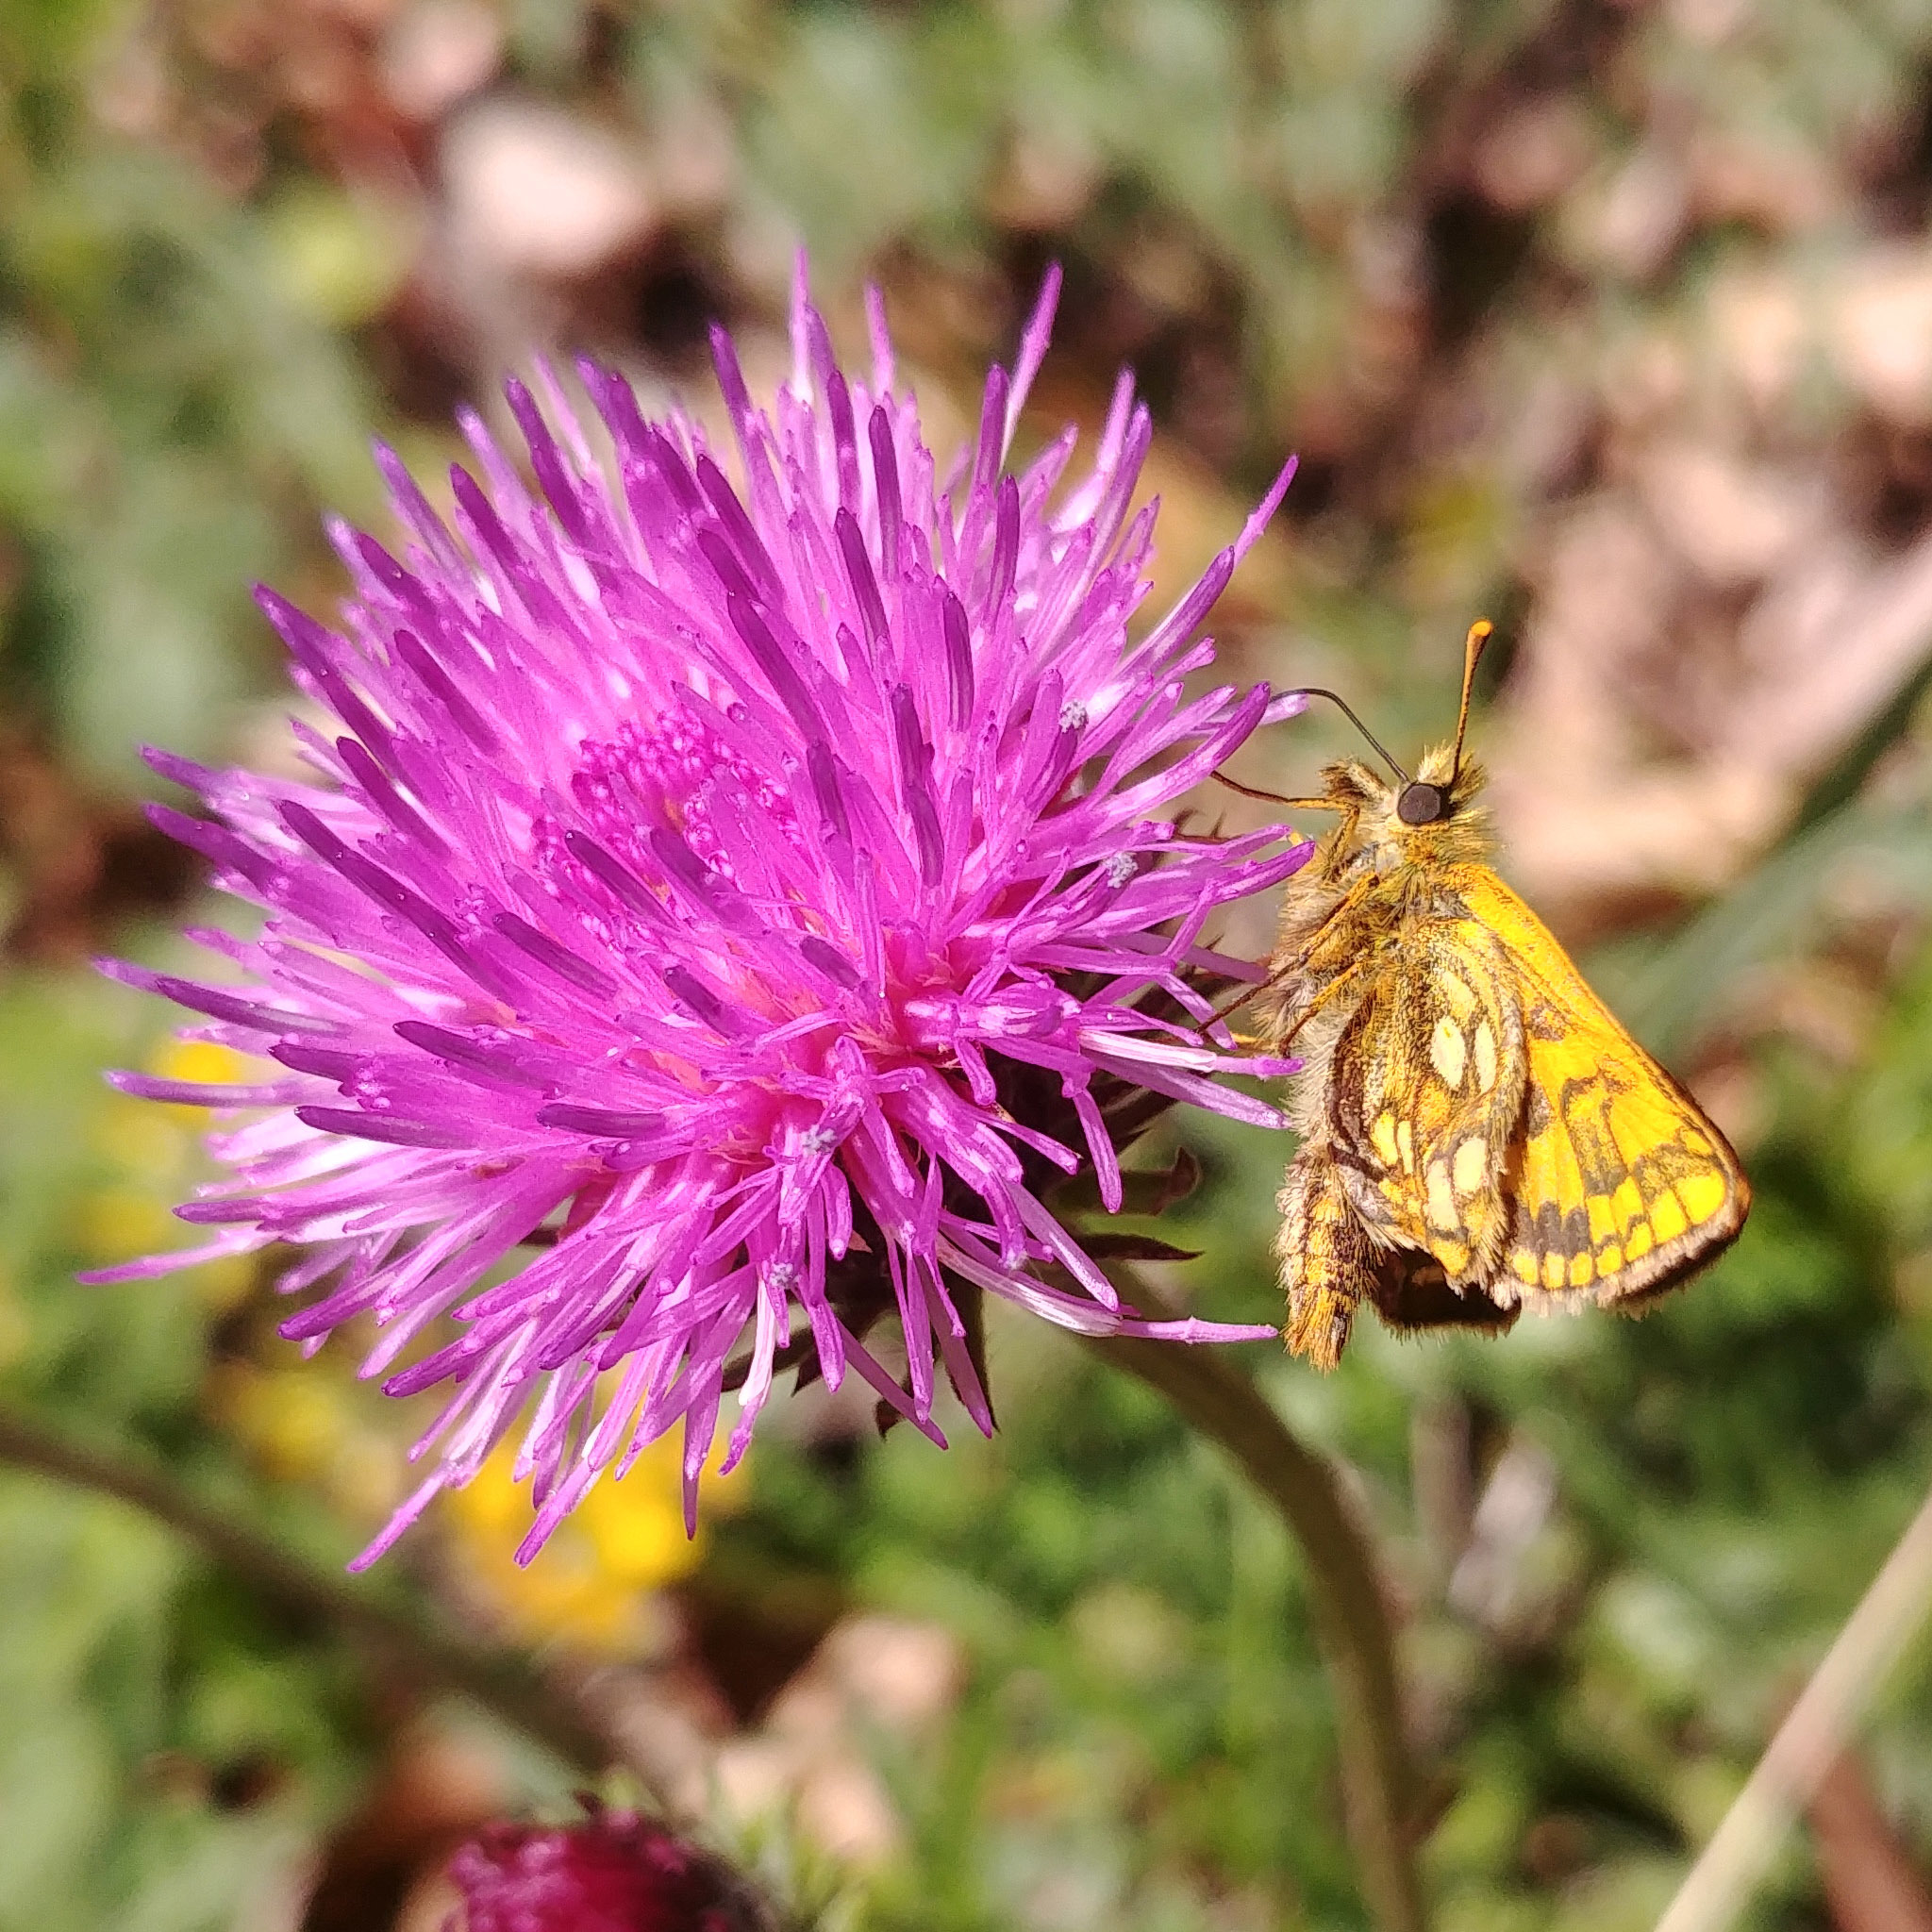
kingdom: Animalia
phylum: Arthropoda
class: Insecta
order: Lepidoptera
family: Hesperiidae
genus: Carterocephalus
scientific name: Carterocephalus palaemon
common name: Chequered skipper
